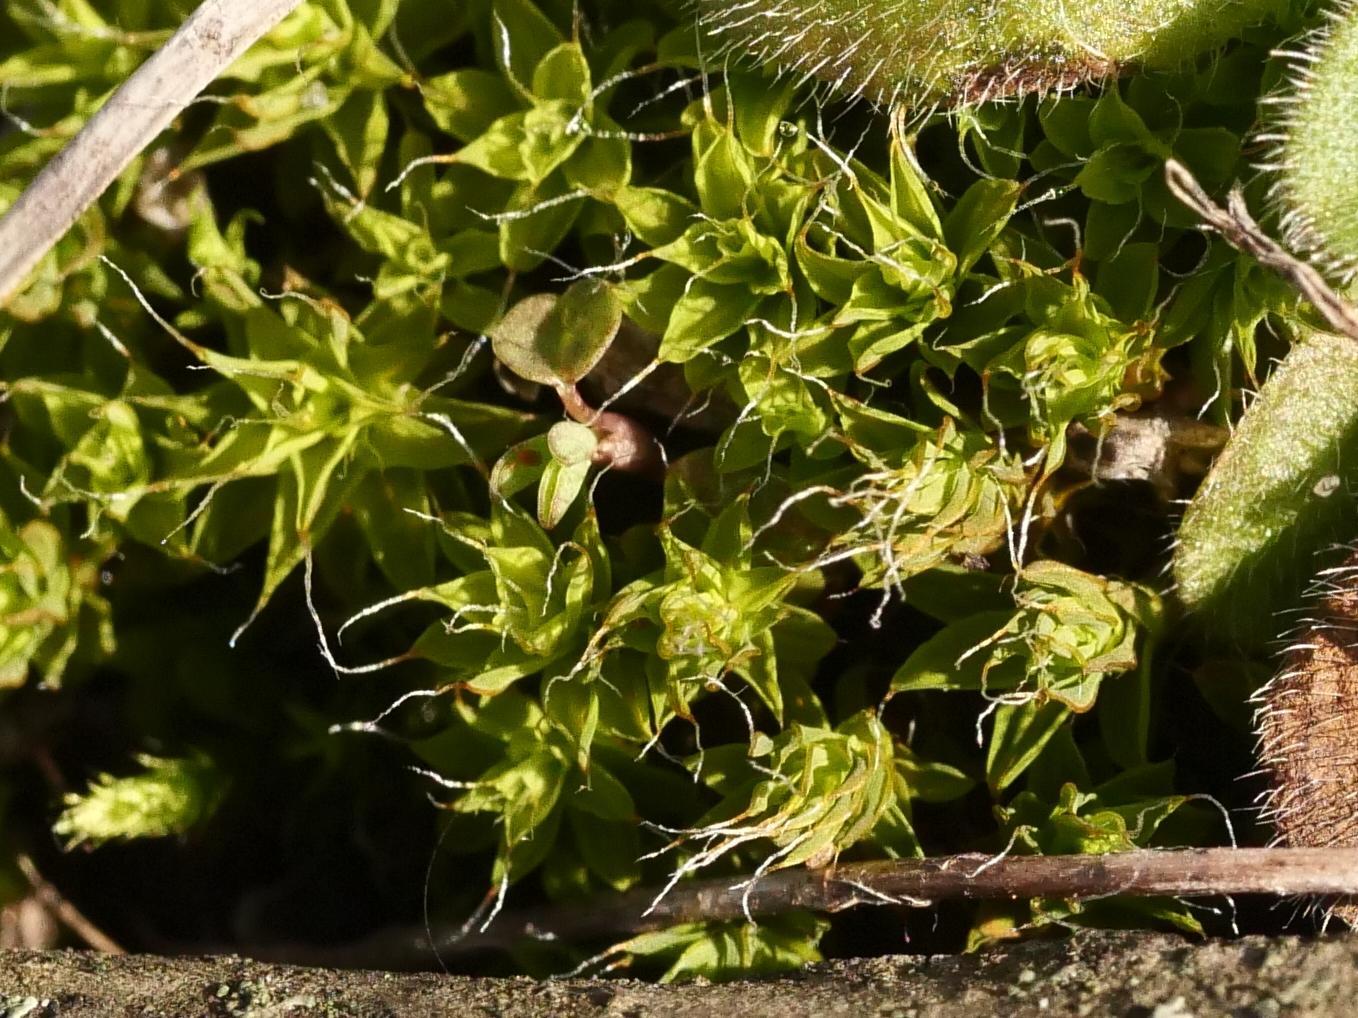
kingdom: Plantae
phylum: Bryophyta
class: Bryopsida
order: Pottiales
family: Pottiaceae
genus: Syntrichia
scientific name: Syntrichia ruralis
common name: Sidewalk screw moss
